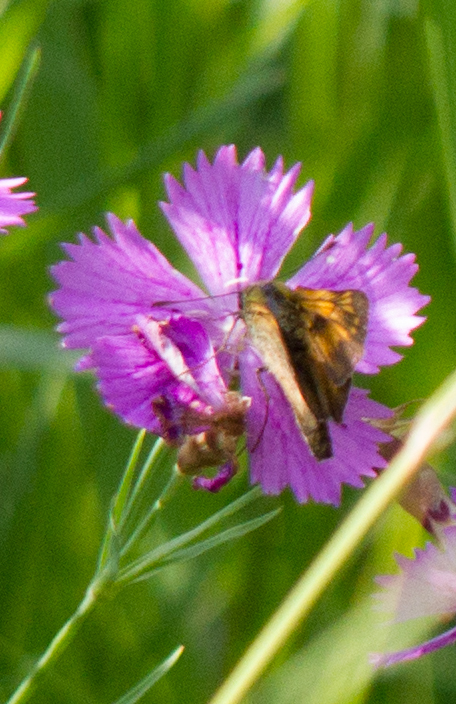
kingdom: Animalia
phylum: Arthropoda
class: Insecta
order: Lepidoptera
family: Hesperiidae
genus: Ochlodes
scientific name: Ochlodes venata
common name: Large skipper
